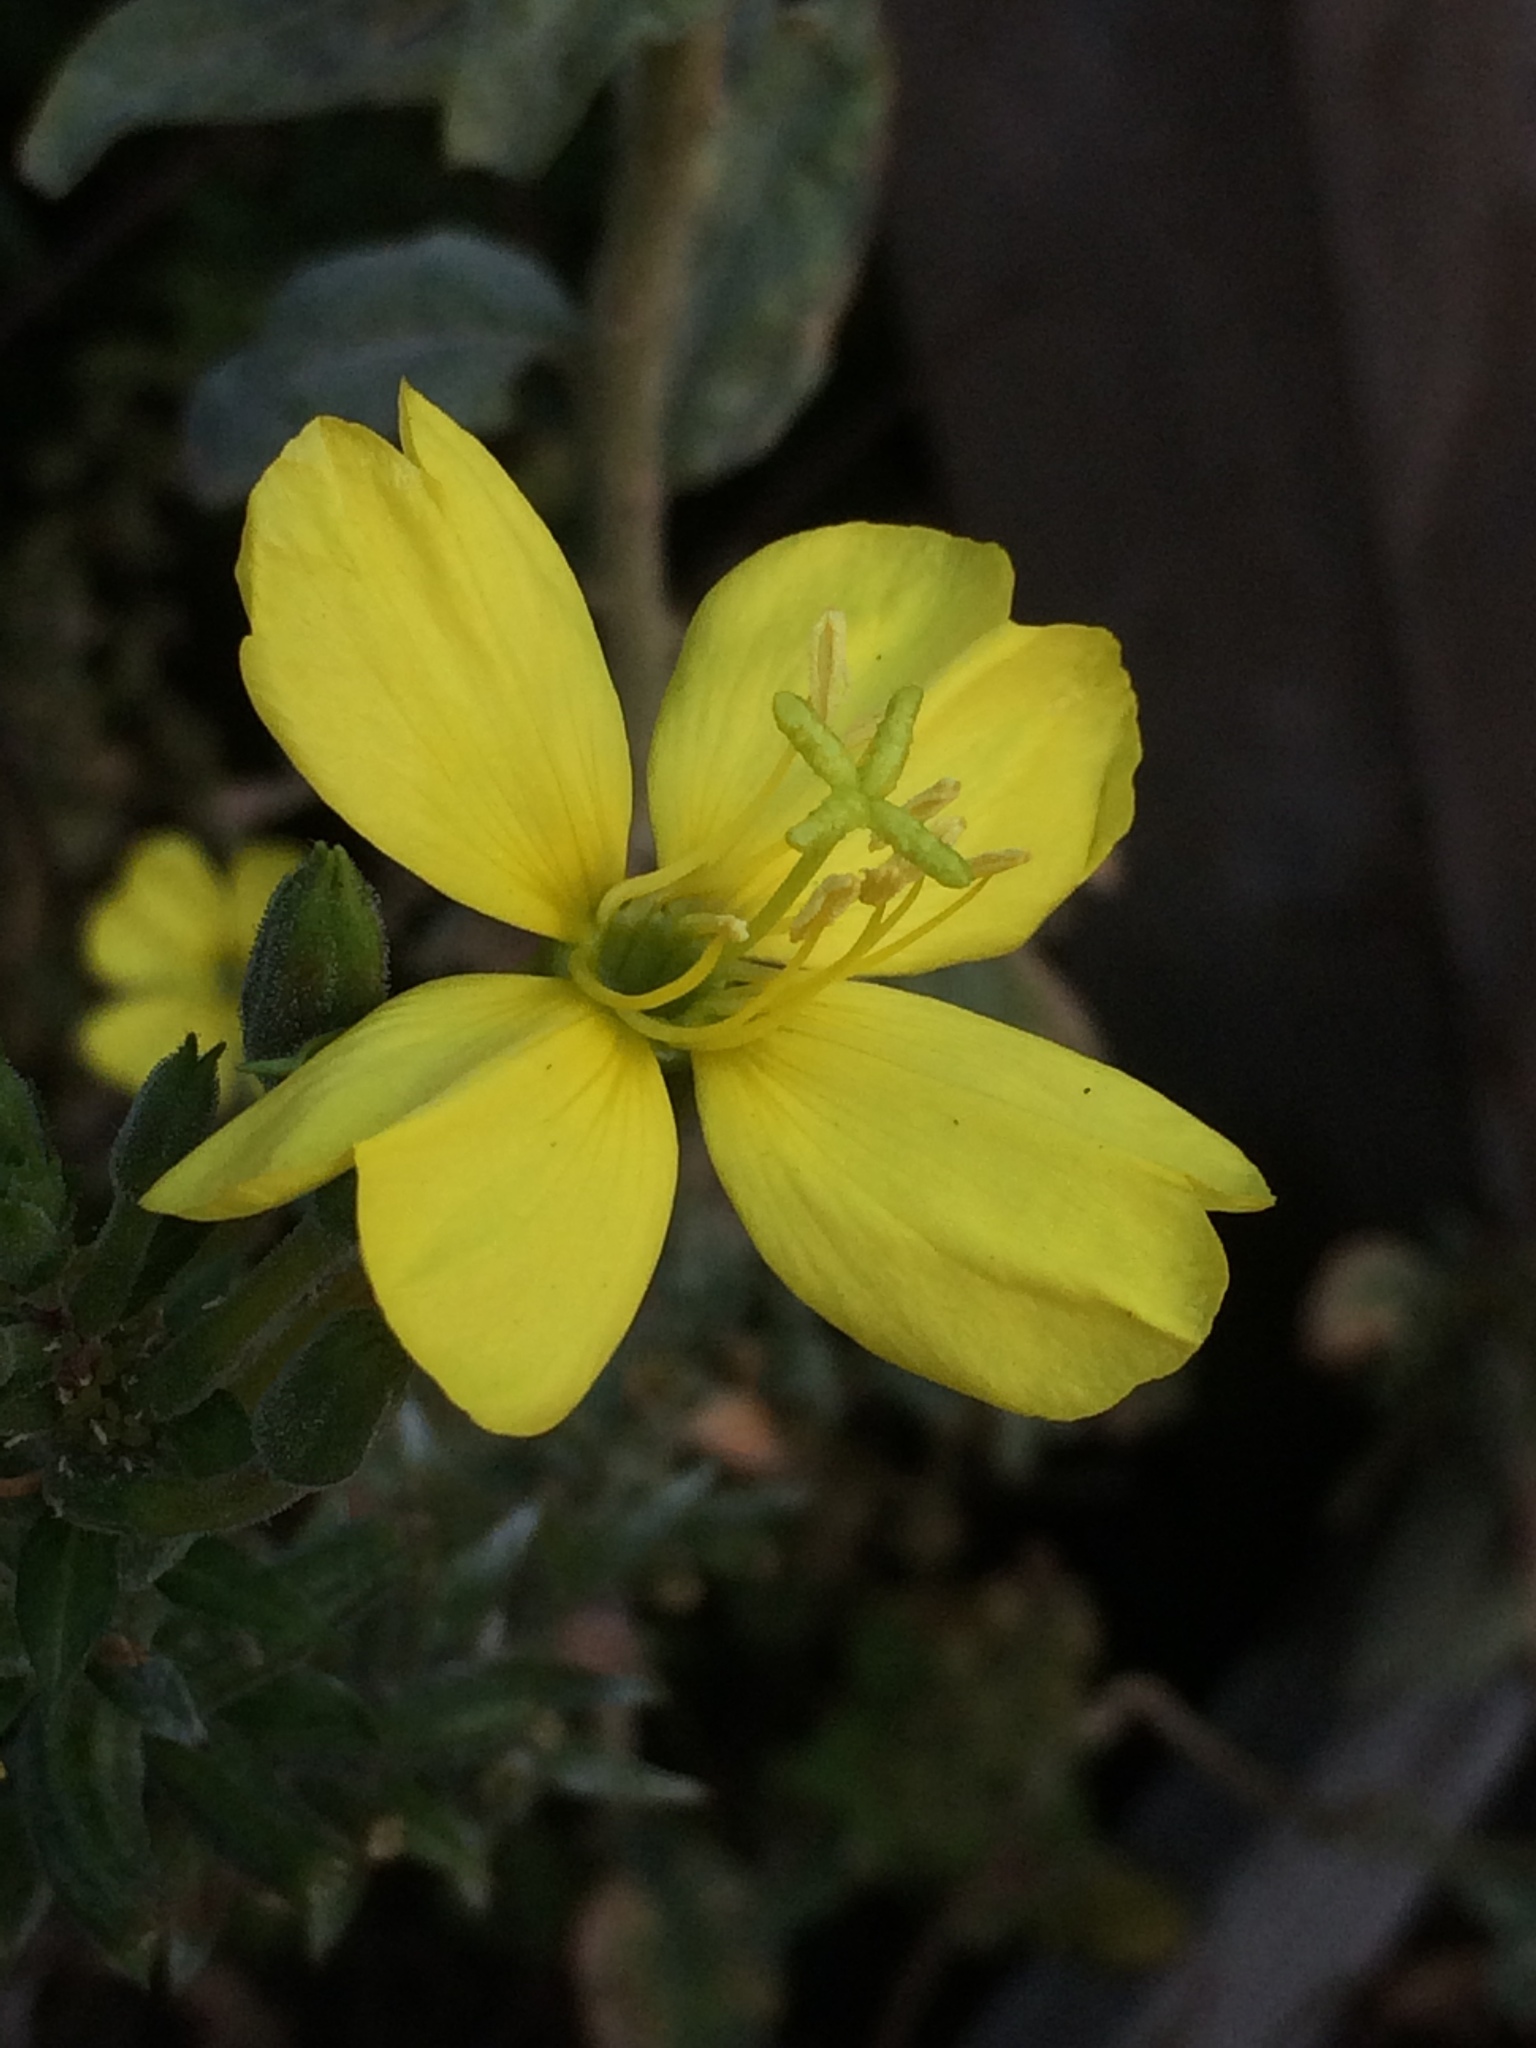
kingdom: Plantae
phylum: Tracheophyta
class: Magnoliopsida
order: Myrtales
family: Onagraceae
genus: Oenothera
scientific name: Oenothera biennis
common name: Common evening-primrose
